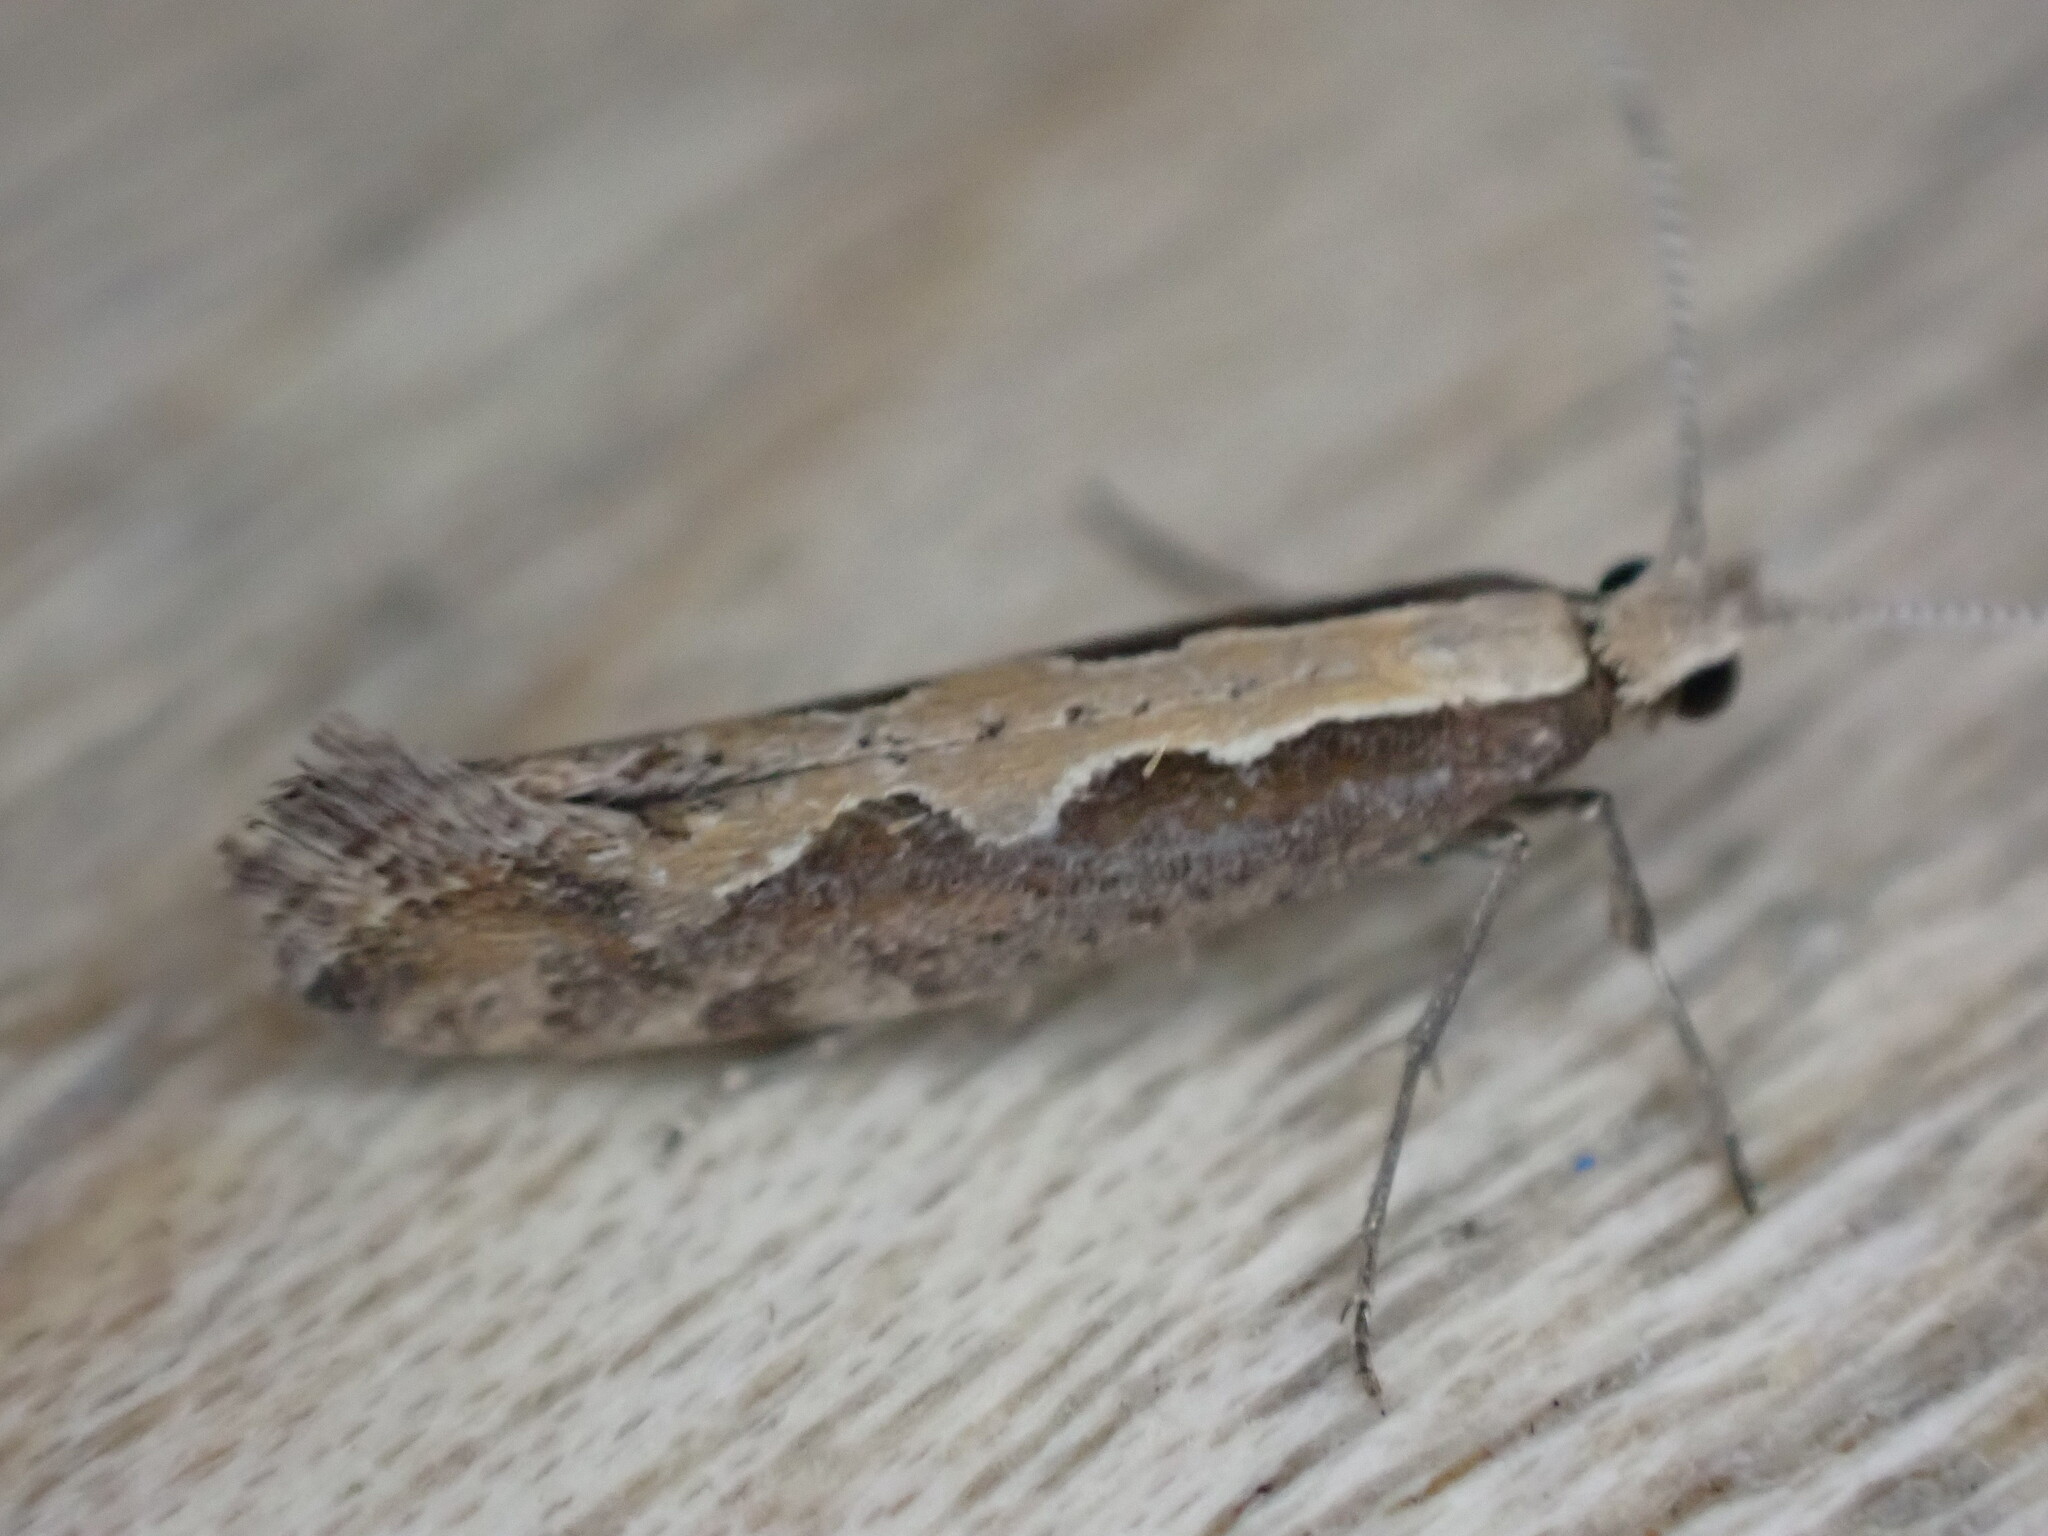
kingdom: Animalia
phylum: Arthropoda
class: Insecta
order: Lepidoptera
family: Plutellidae
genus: Plutella
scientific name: Plutella xylostella
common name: Diamond-back moth
